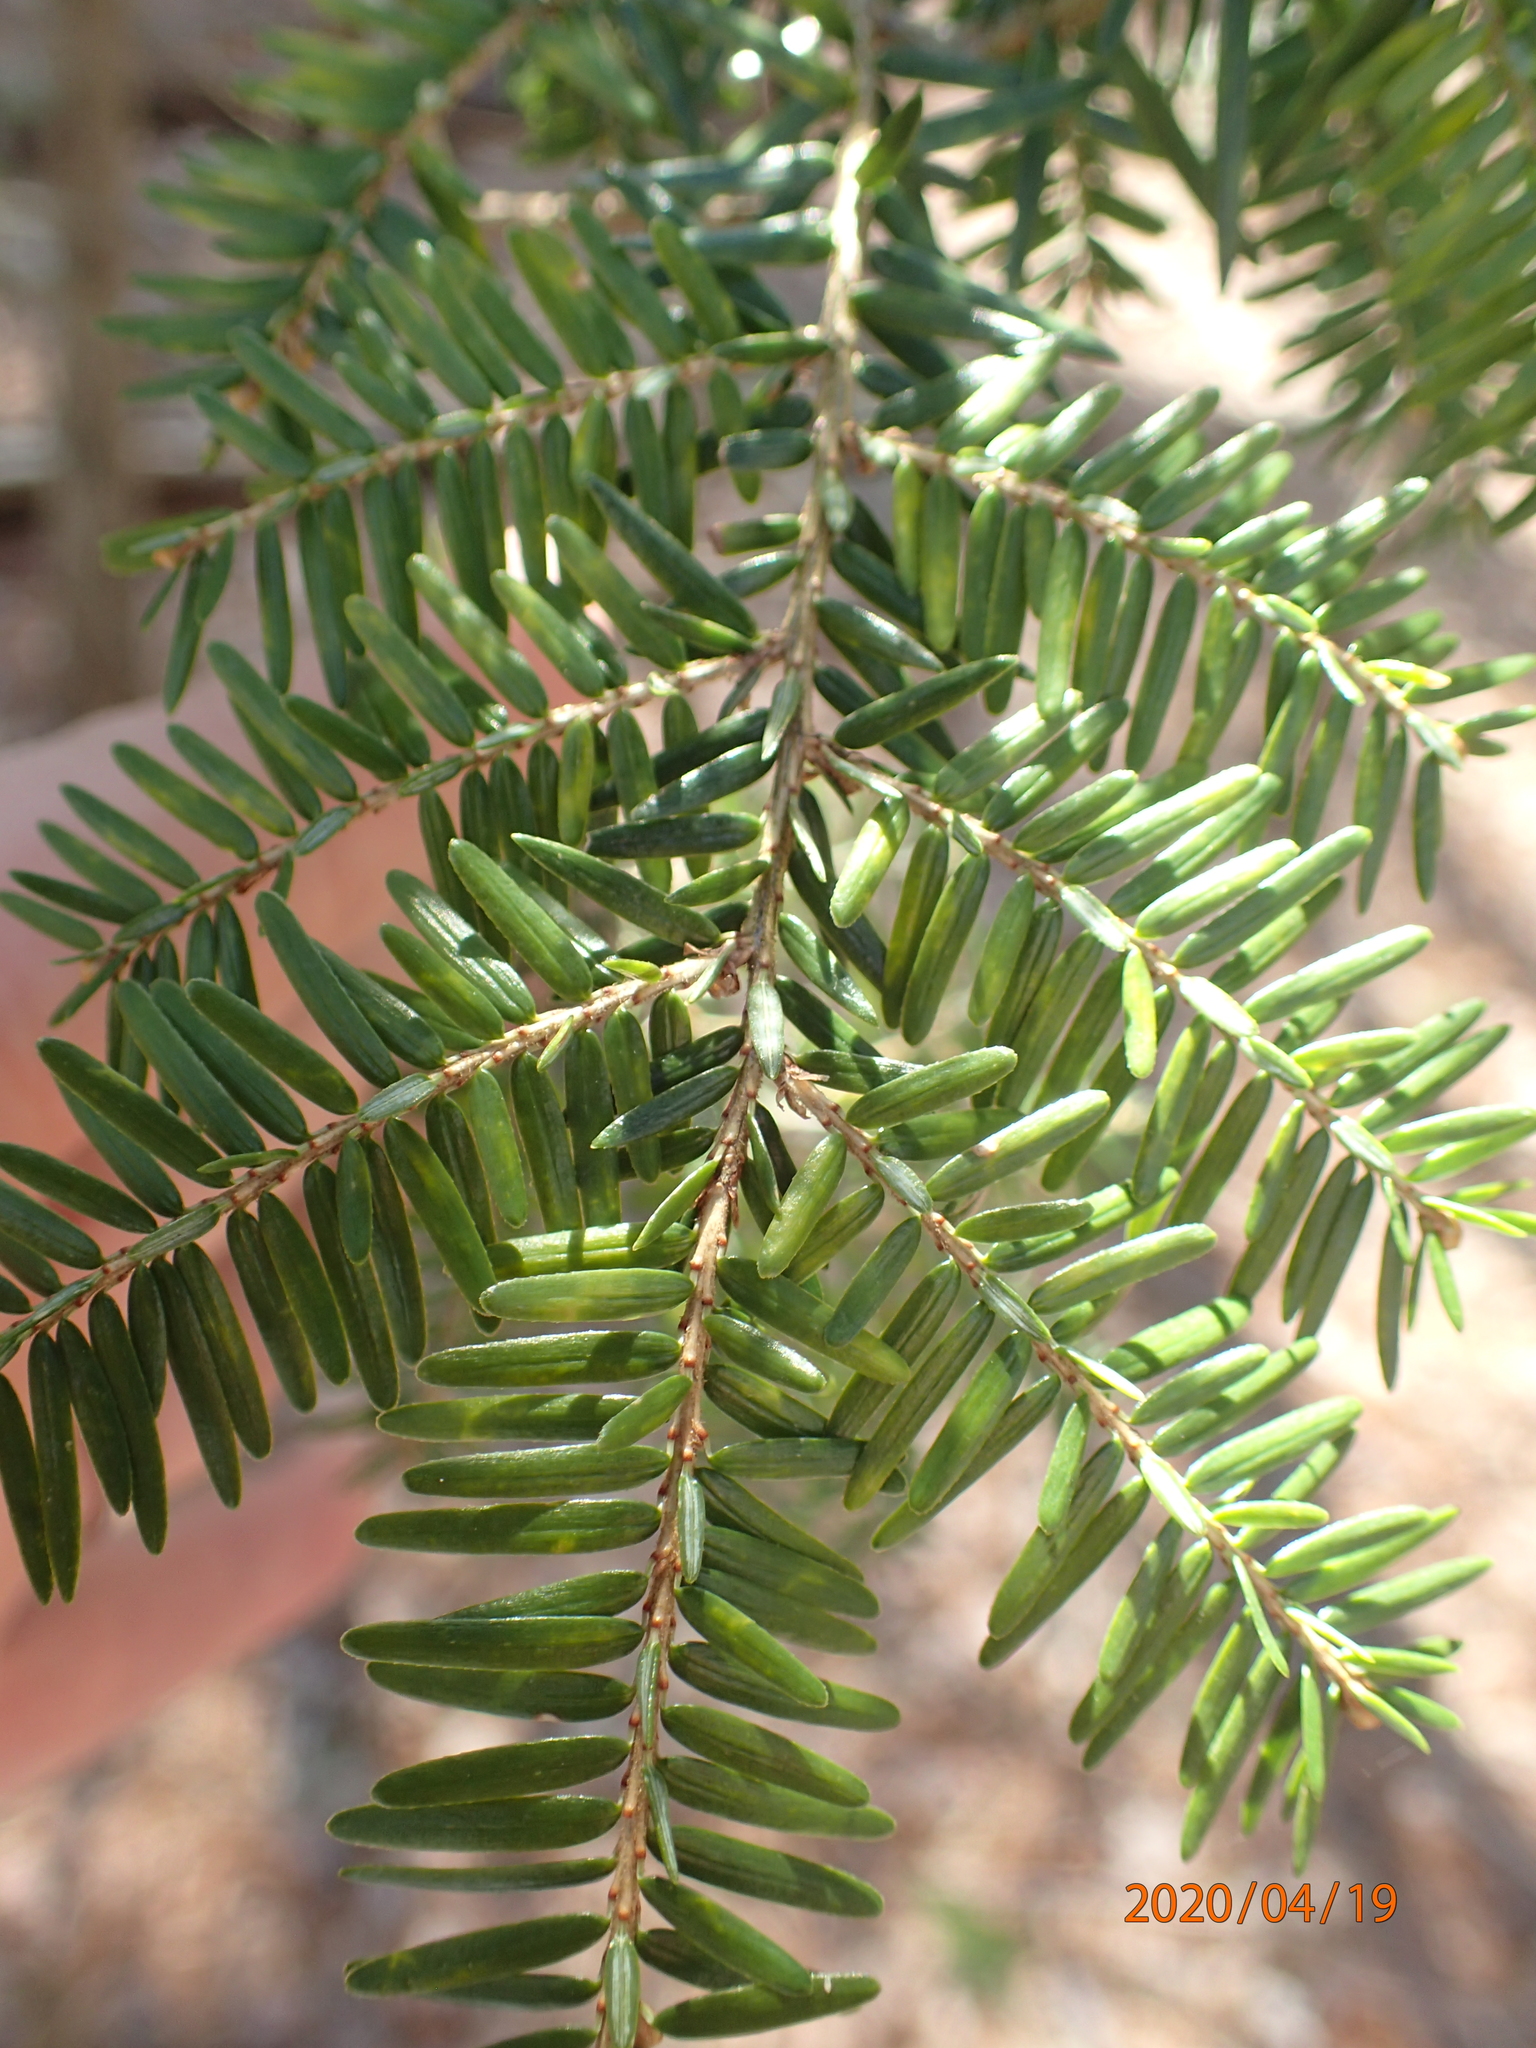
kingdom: Plantae
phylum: Tracheophyta
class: Pinopsida
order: Pinales
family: Pinaceae
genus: Tsuga
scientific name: Tsuga canadensis
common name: Eastern hemlock
